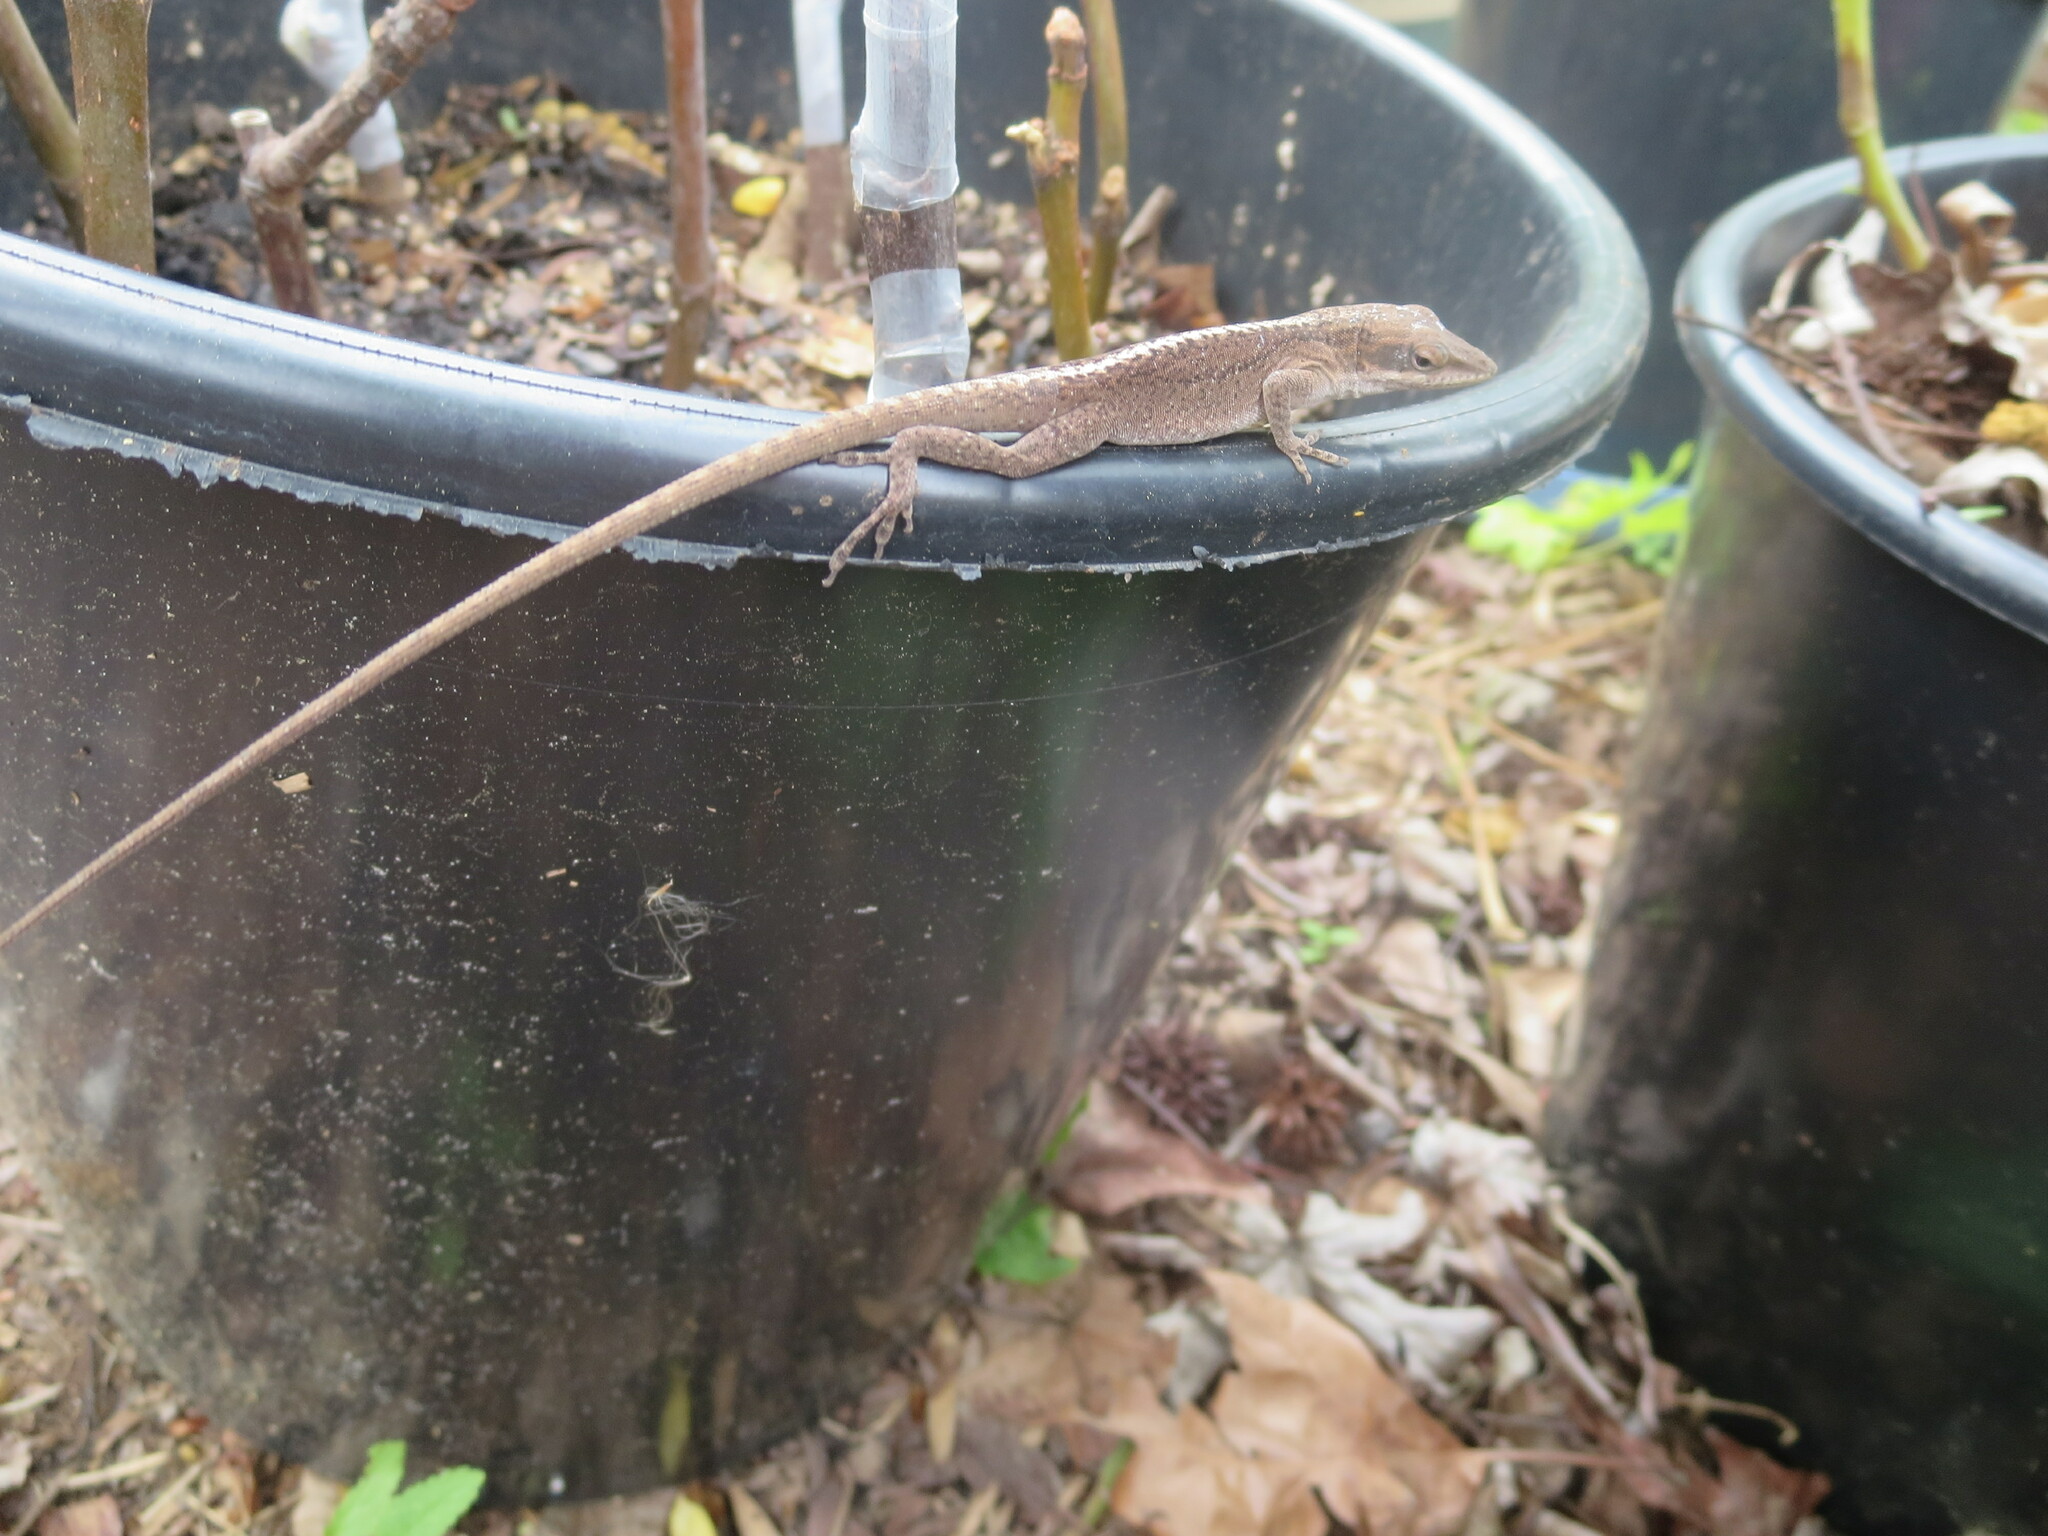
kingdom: Animalia
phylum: Chordata
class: Squamata
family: Dactyloidae
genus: Anolis
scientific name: Anolis carolinensis
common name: Green anole
